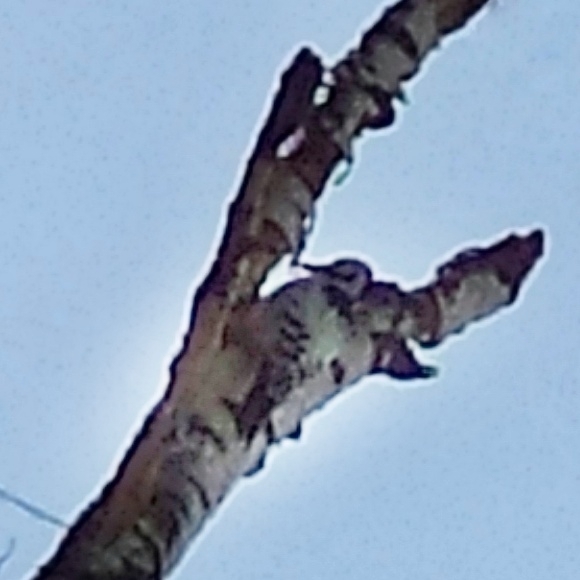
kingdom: Animalia
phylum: Chordata
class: Aves
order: Piciformes
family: Picidae
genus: Dendrocopos
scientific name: Dendrocopos leucotos
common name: White-backed woodpecker
